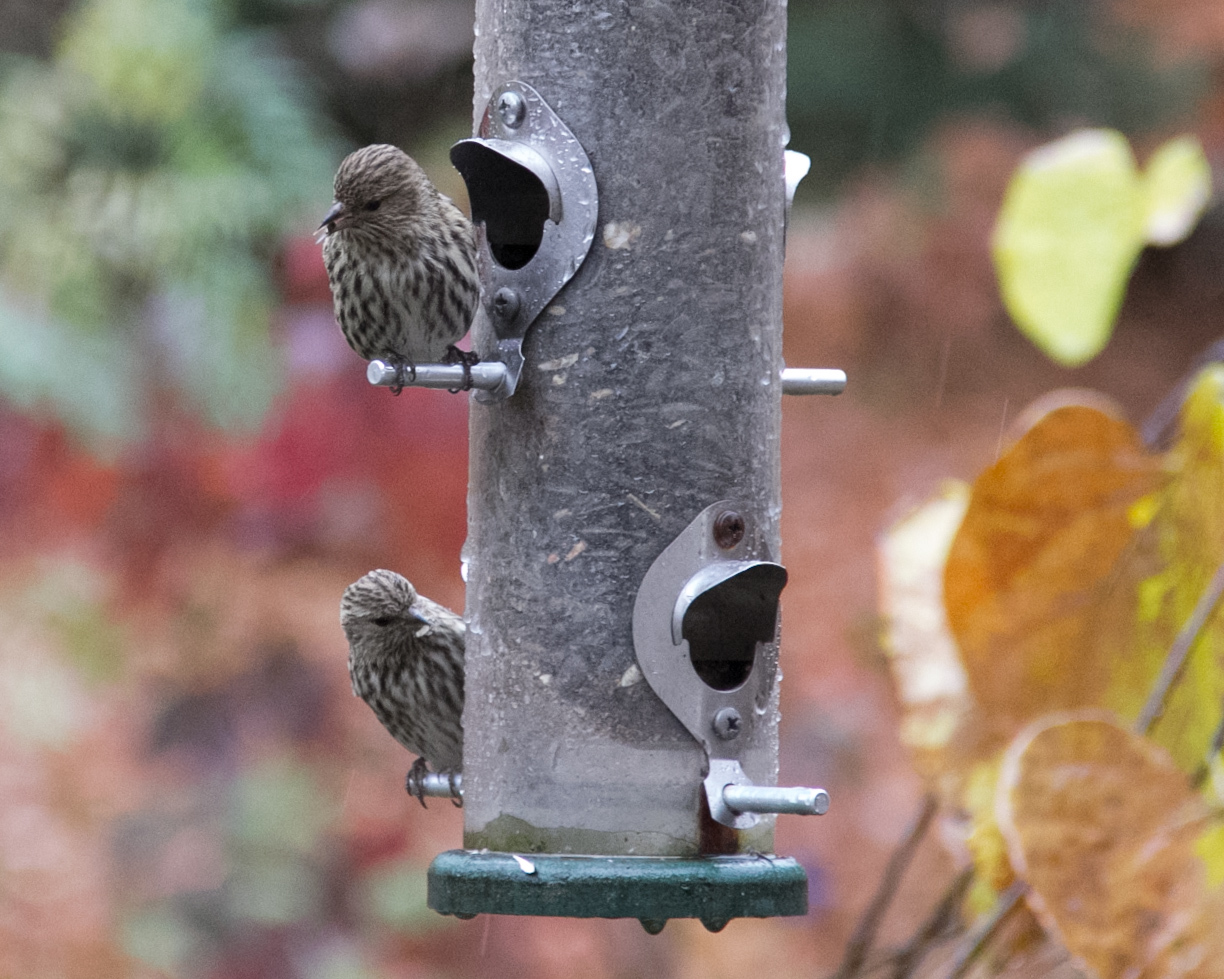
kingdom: Animalia
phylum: Chordata
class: Aves
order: Passeriformes
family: Fringillidae
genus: Spinus
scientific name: Spinus pinus
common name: Pine siskin
